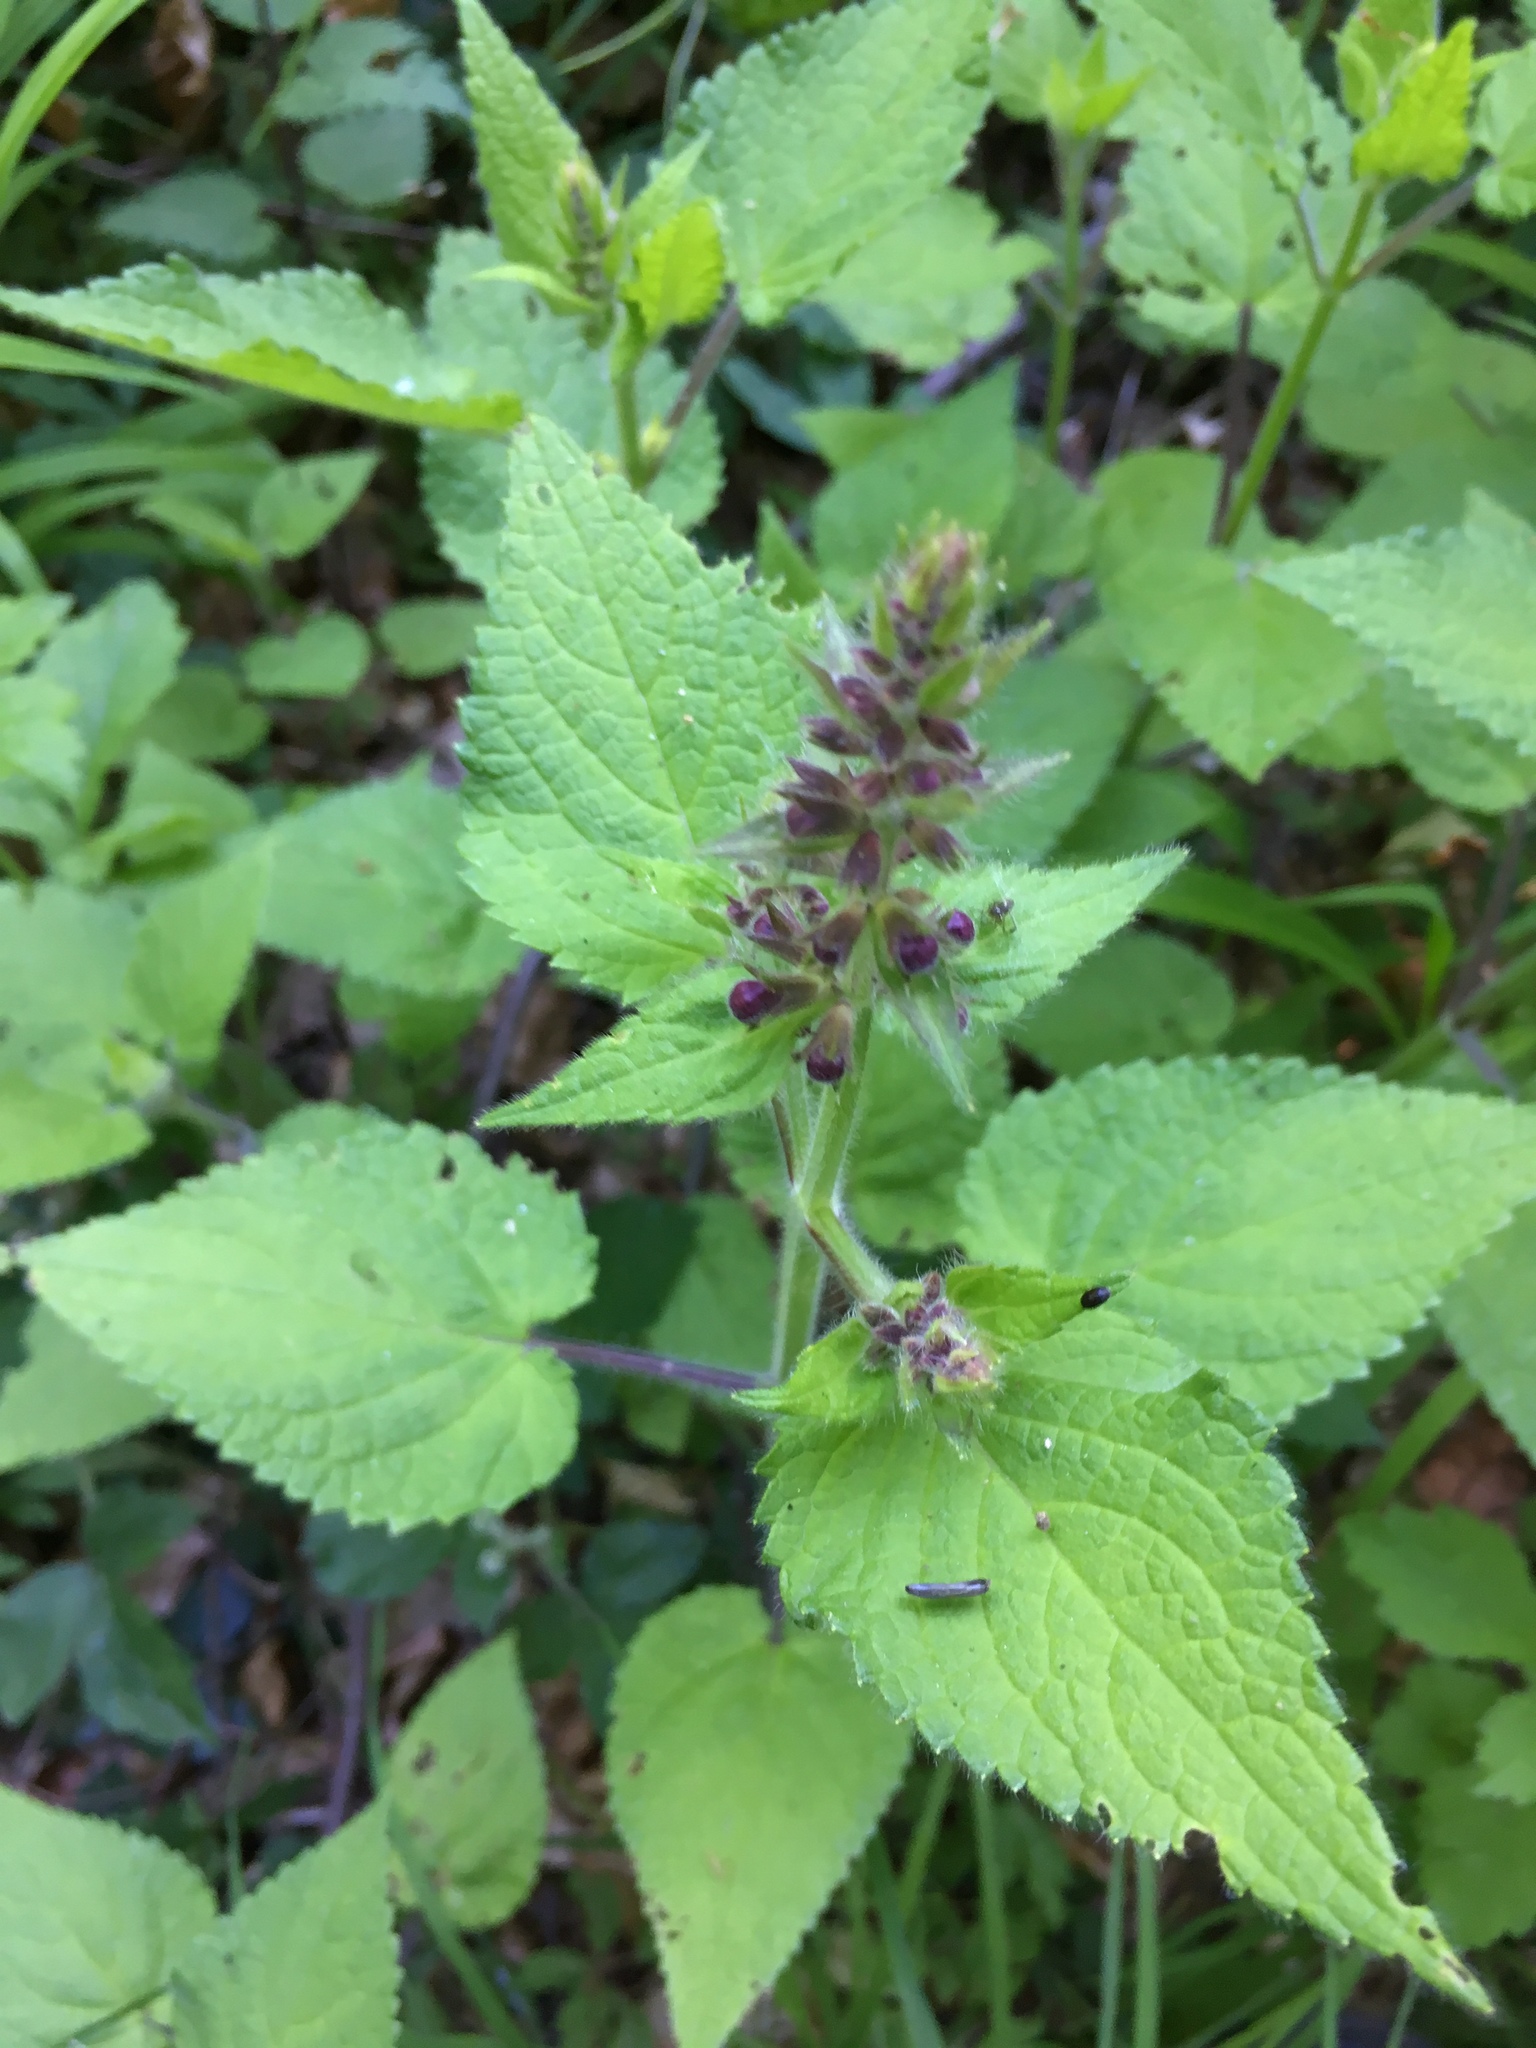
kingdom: Plantae
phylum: Tracheophyta
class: Magnoliopsida
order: Lamiales
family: Lamiaceae
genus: Stachys
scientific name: Stachys sylvatica
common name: Hedge woundwort
